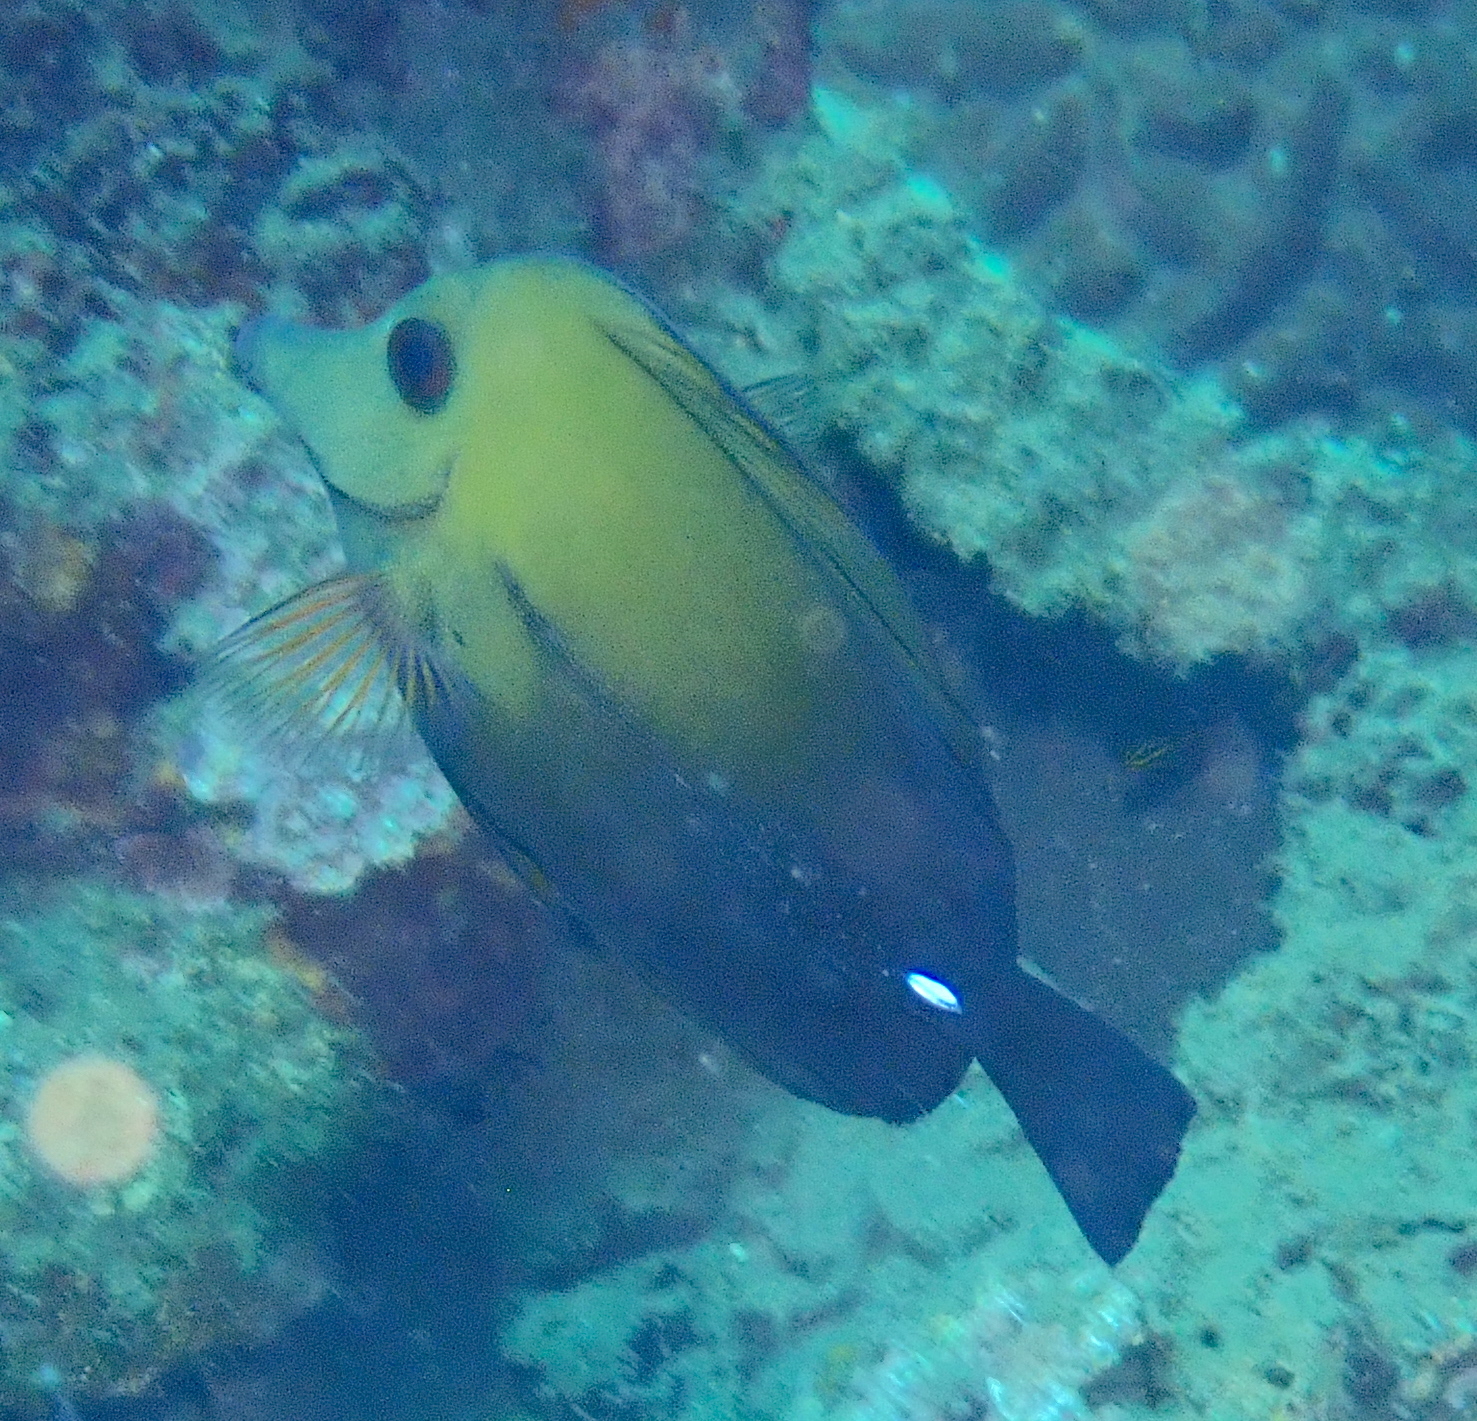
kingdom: Animalia
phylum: Chordata
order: Perciformes
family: Acanthuridae
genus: Zebrasoma
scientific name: Zebrasoma scopas
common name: Twotone tang
